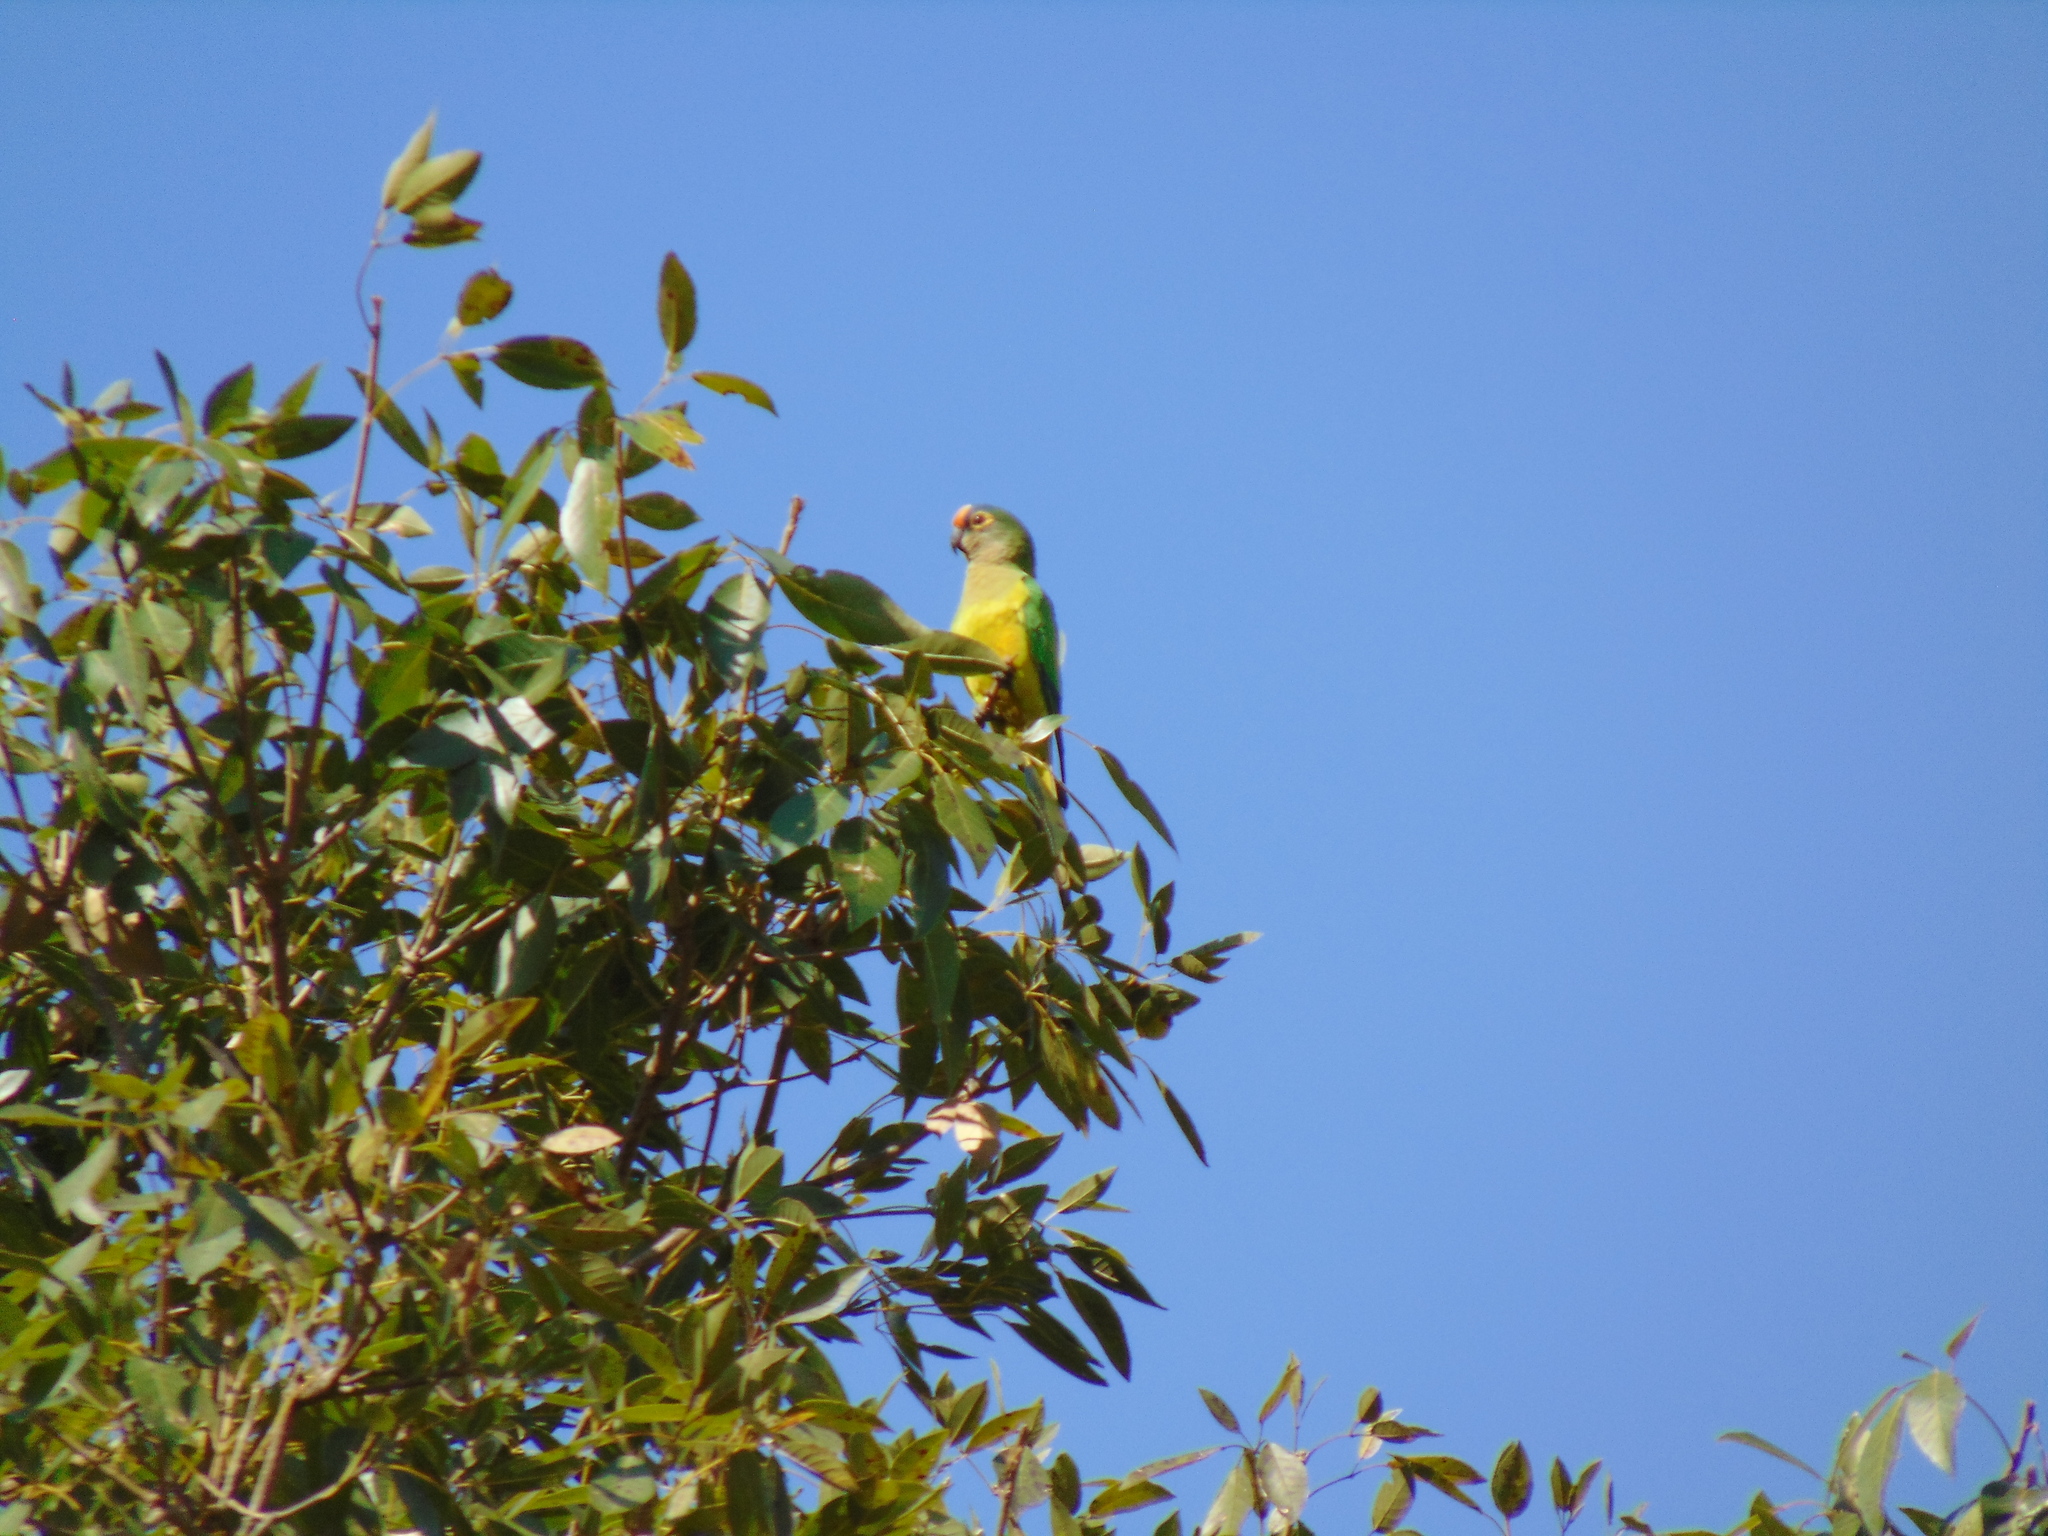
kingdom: Animalia
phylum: Chordata
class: Aves
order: Psittaciformes
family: Psittacidae
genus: Aratinga
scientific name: Aratinga aurea
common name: Peach-fronted parakeet
